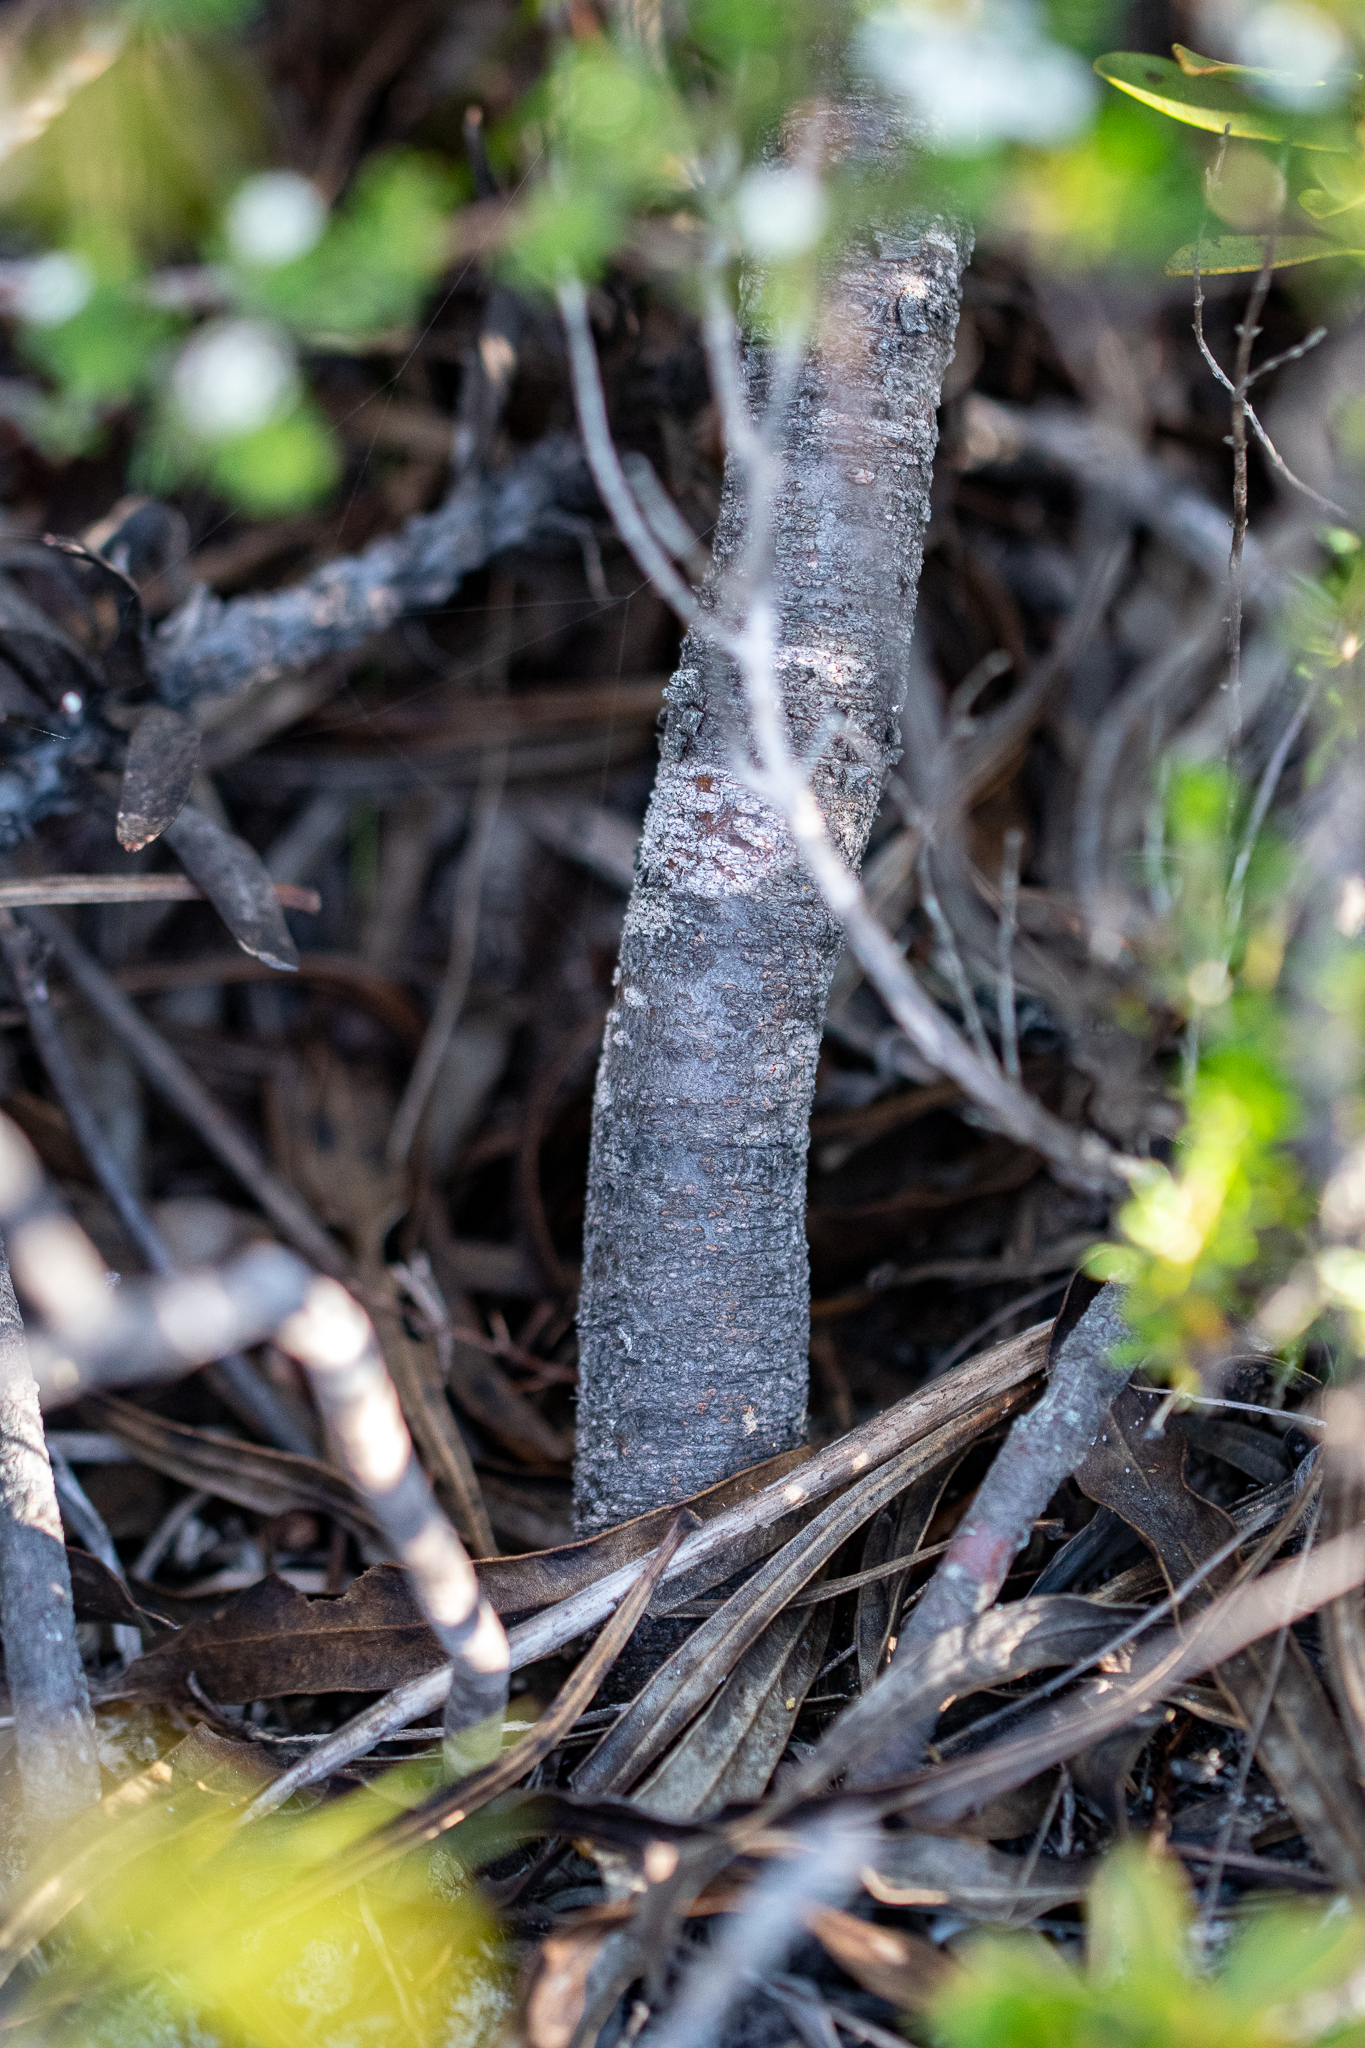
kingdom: Plantae
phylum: Tracheophyta
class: Magnoliopsida
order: Proteales
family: Proteaceae
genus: Protea
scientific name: Protea longifolia
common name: Long-leaf sugarbush
